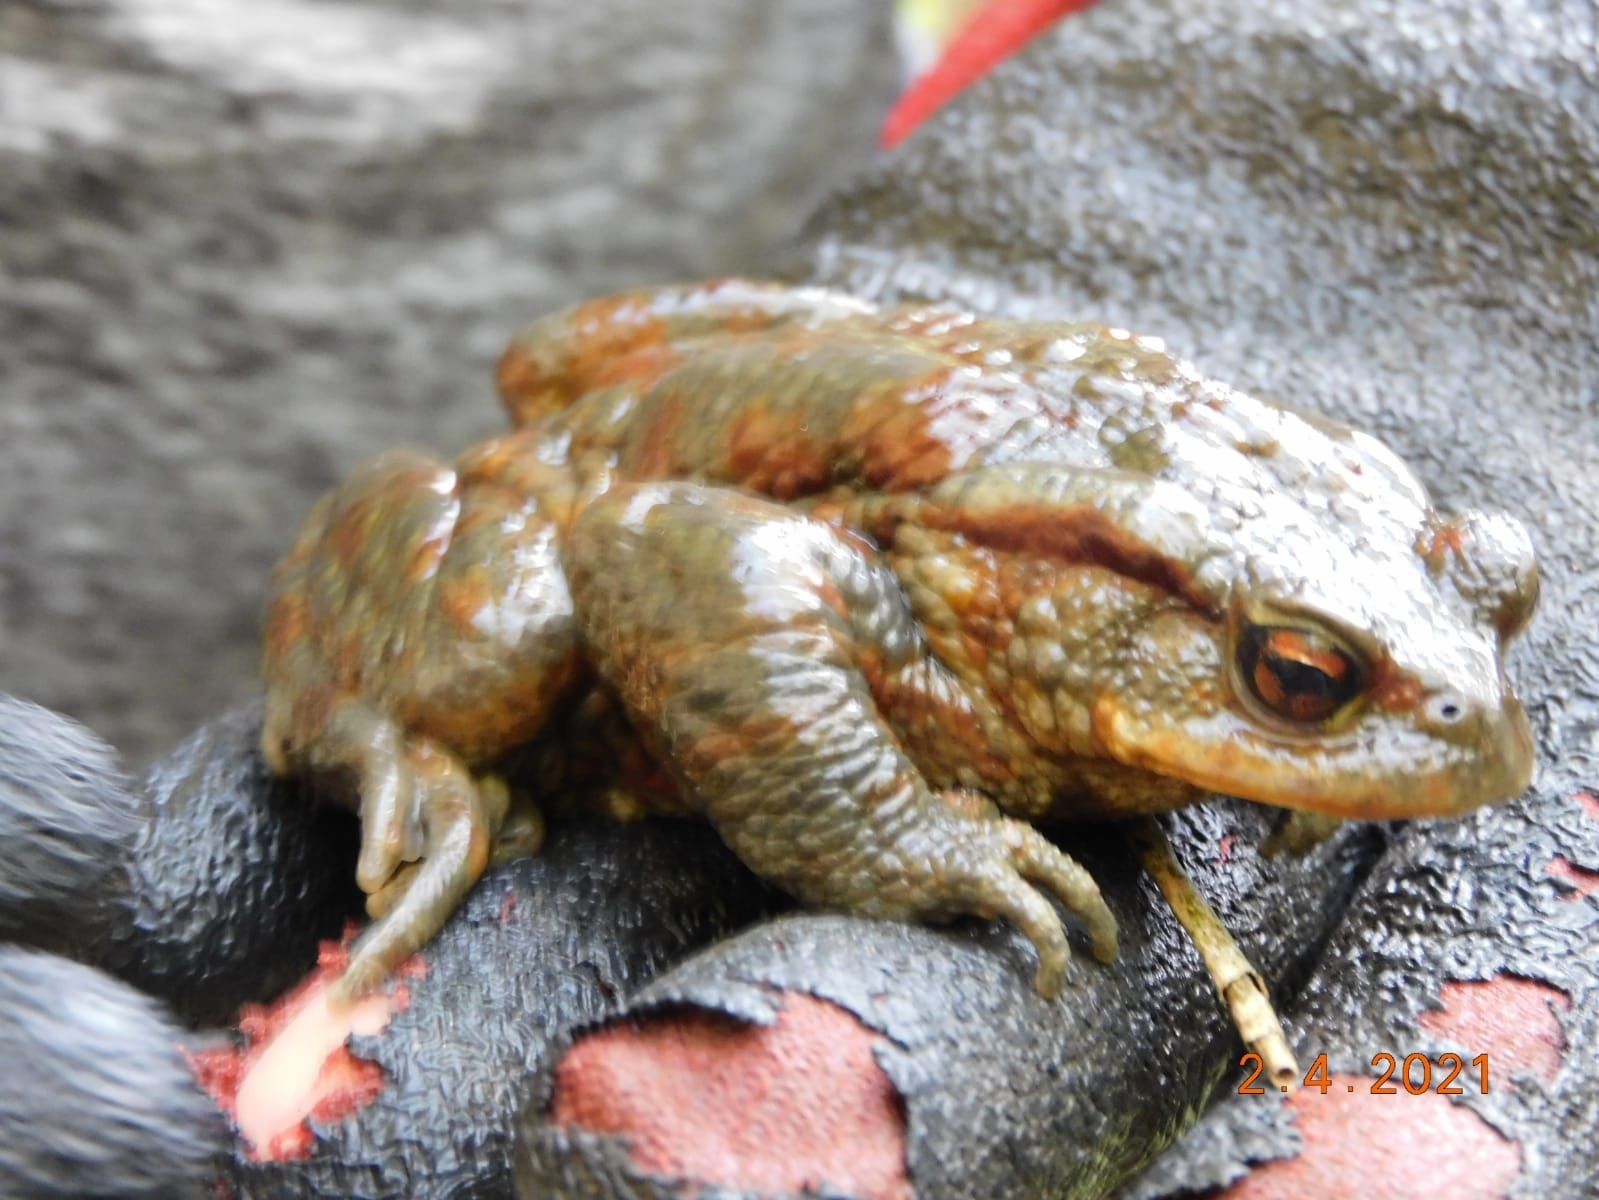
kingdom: Animalia
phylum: Chordata
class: Amphibia
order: Anura
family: Bufonidae
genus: Bufo
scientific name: Bufo bufo
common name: Common toad
